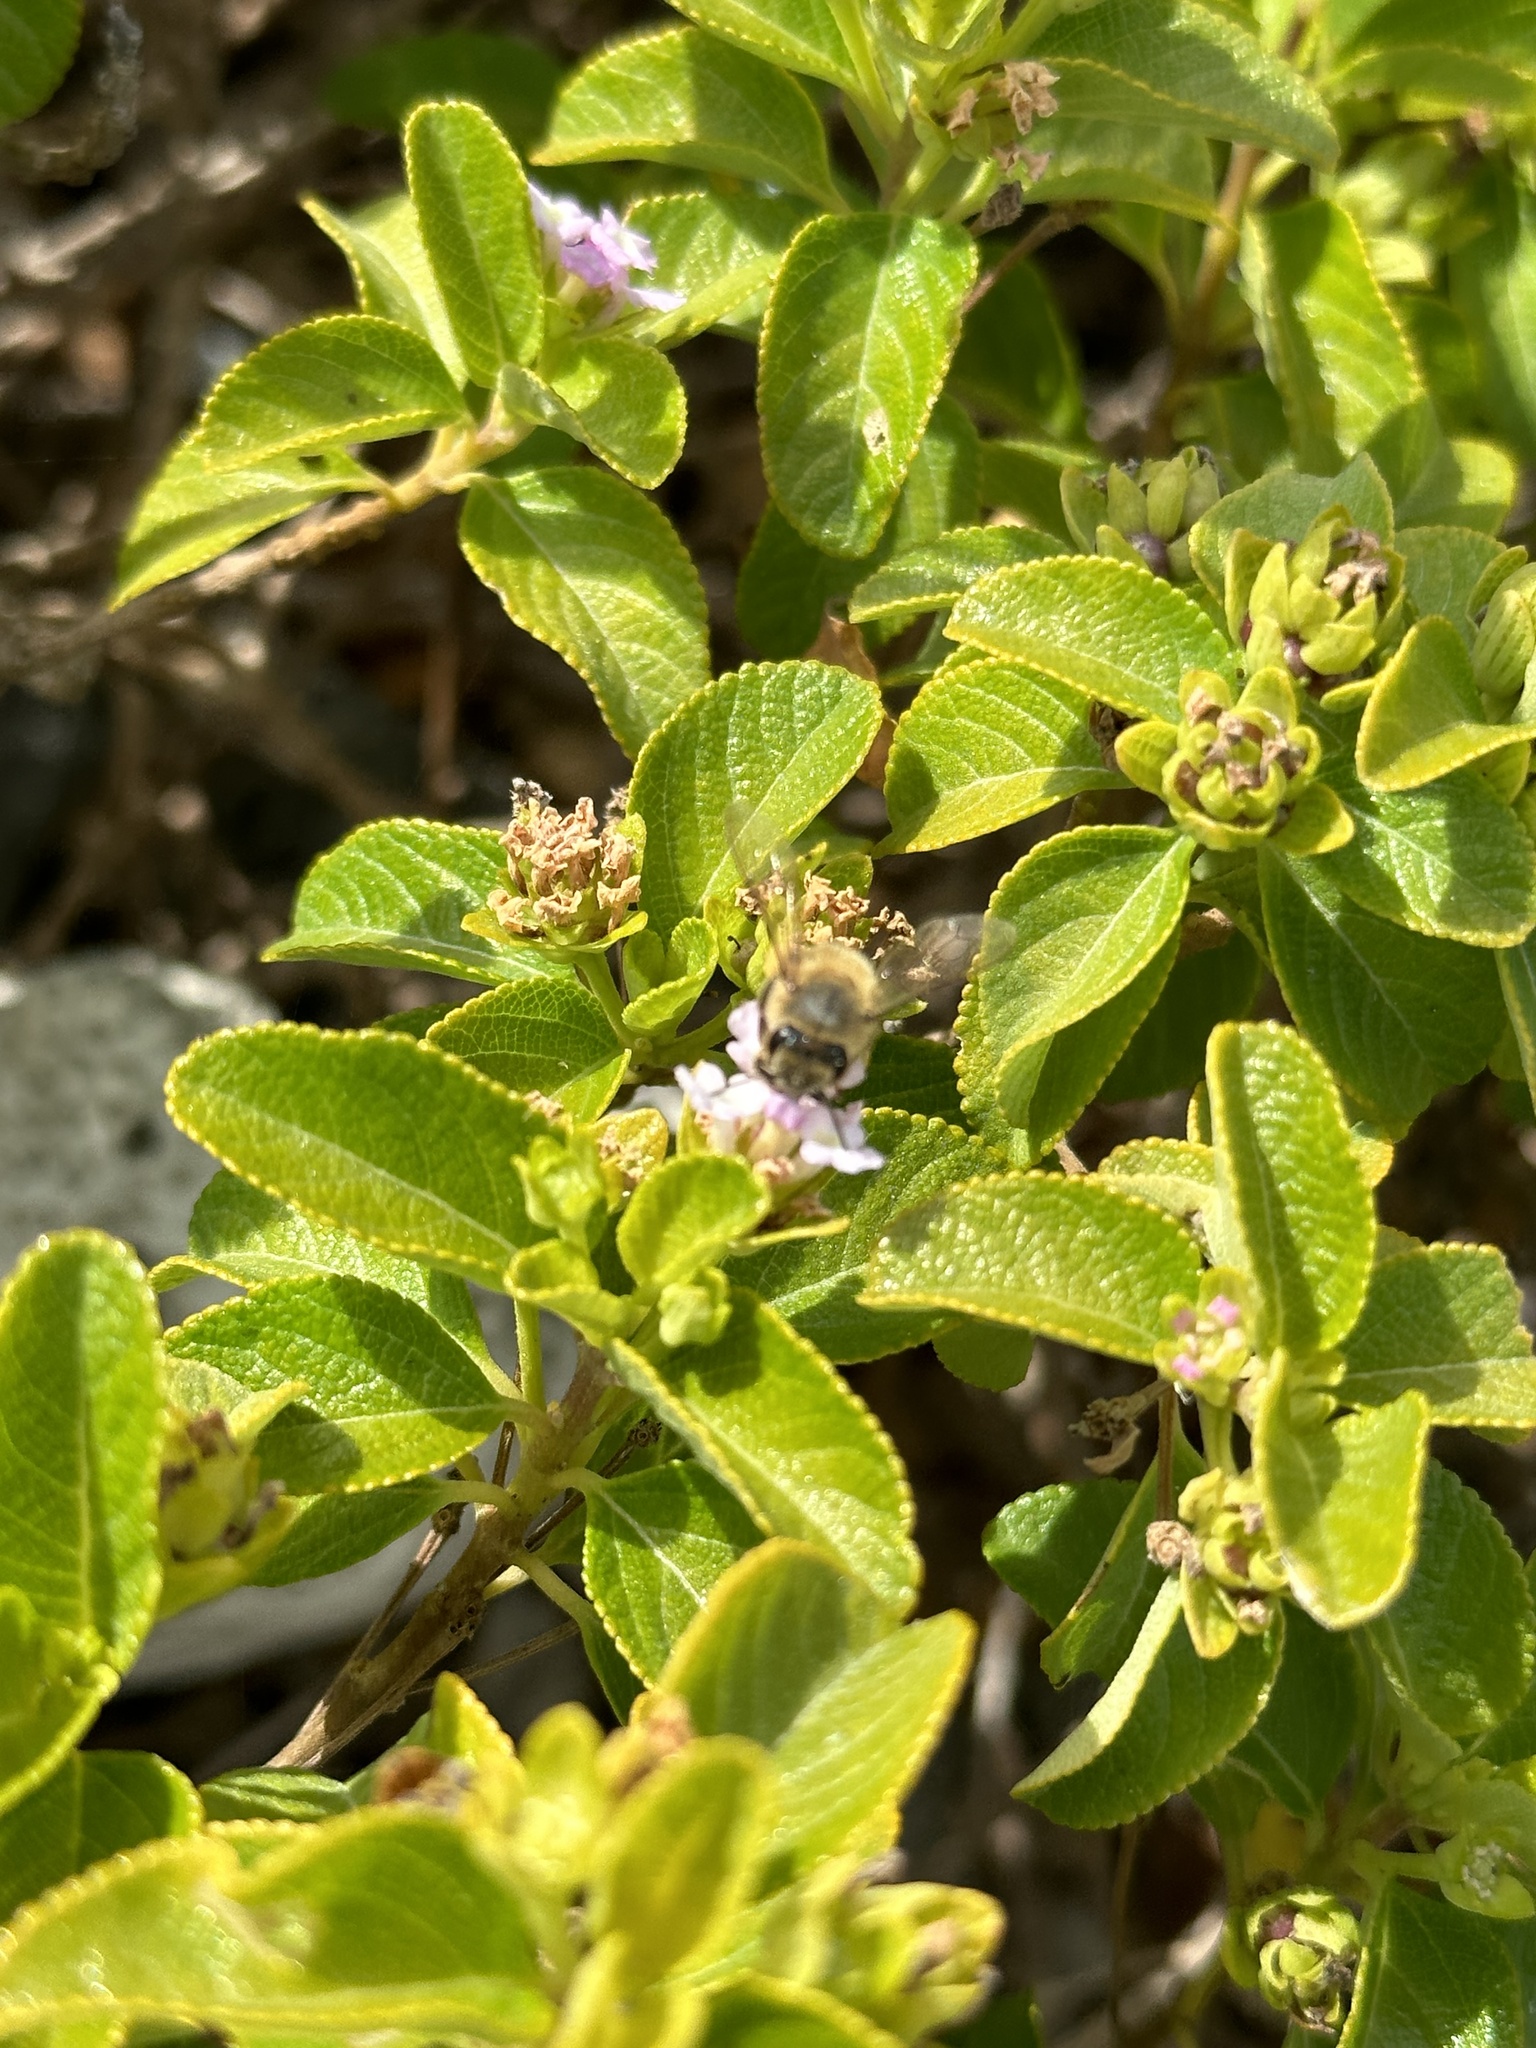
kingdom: Animalia
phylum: Arthropoda
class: Insecta
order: Hymenoptera
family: Apidae
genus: Apis
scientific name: Apis mellifera
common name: Honey bee
